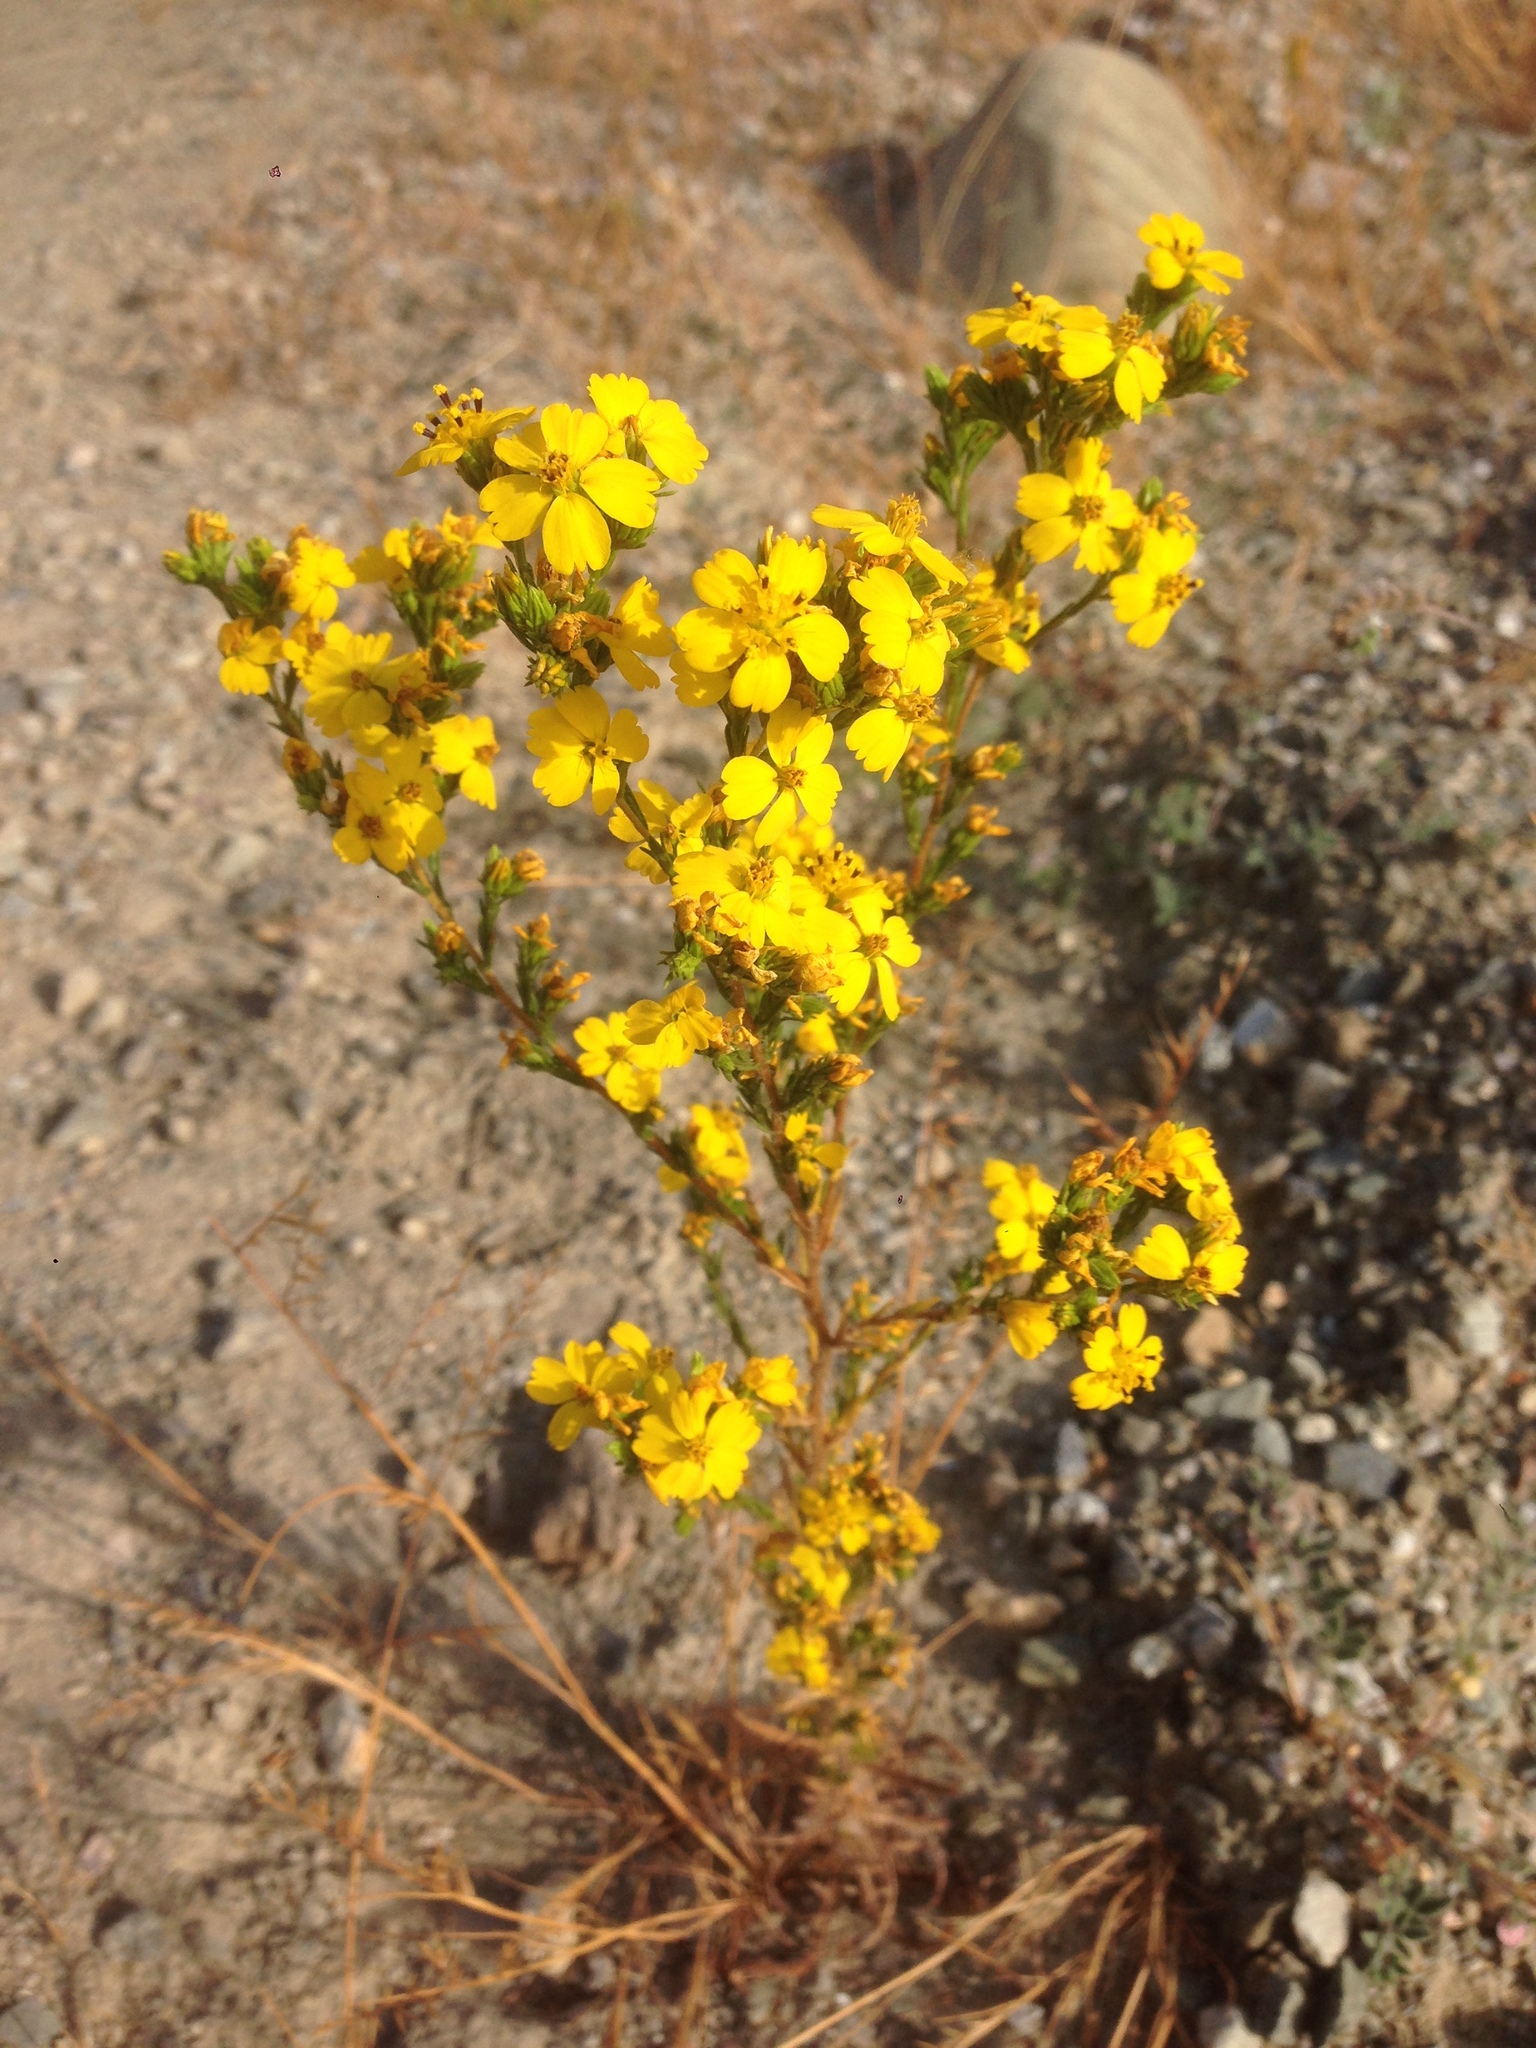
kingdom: Plantae
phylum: Tracheophyta
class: Magnoliopsida
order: Asterales
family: Asteraceae
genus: Deinandra
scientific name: Deinandra fasciculata
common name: Clustered tarweed
